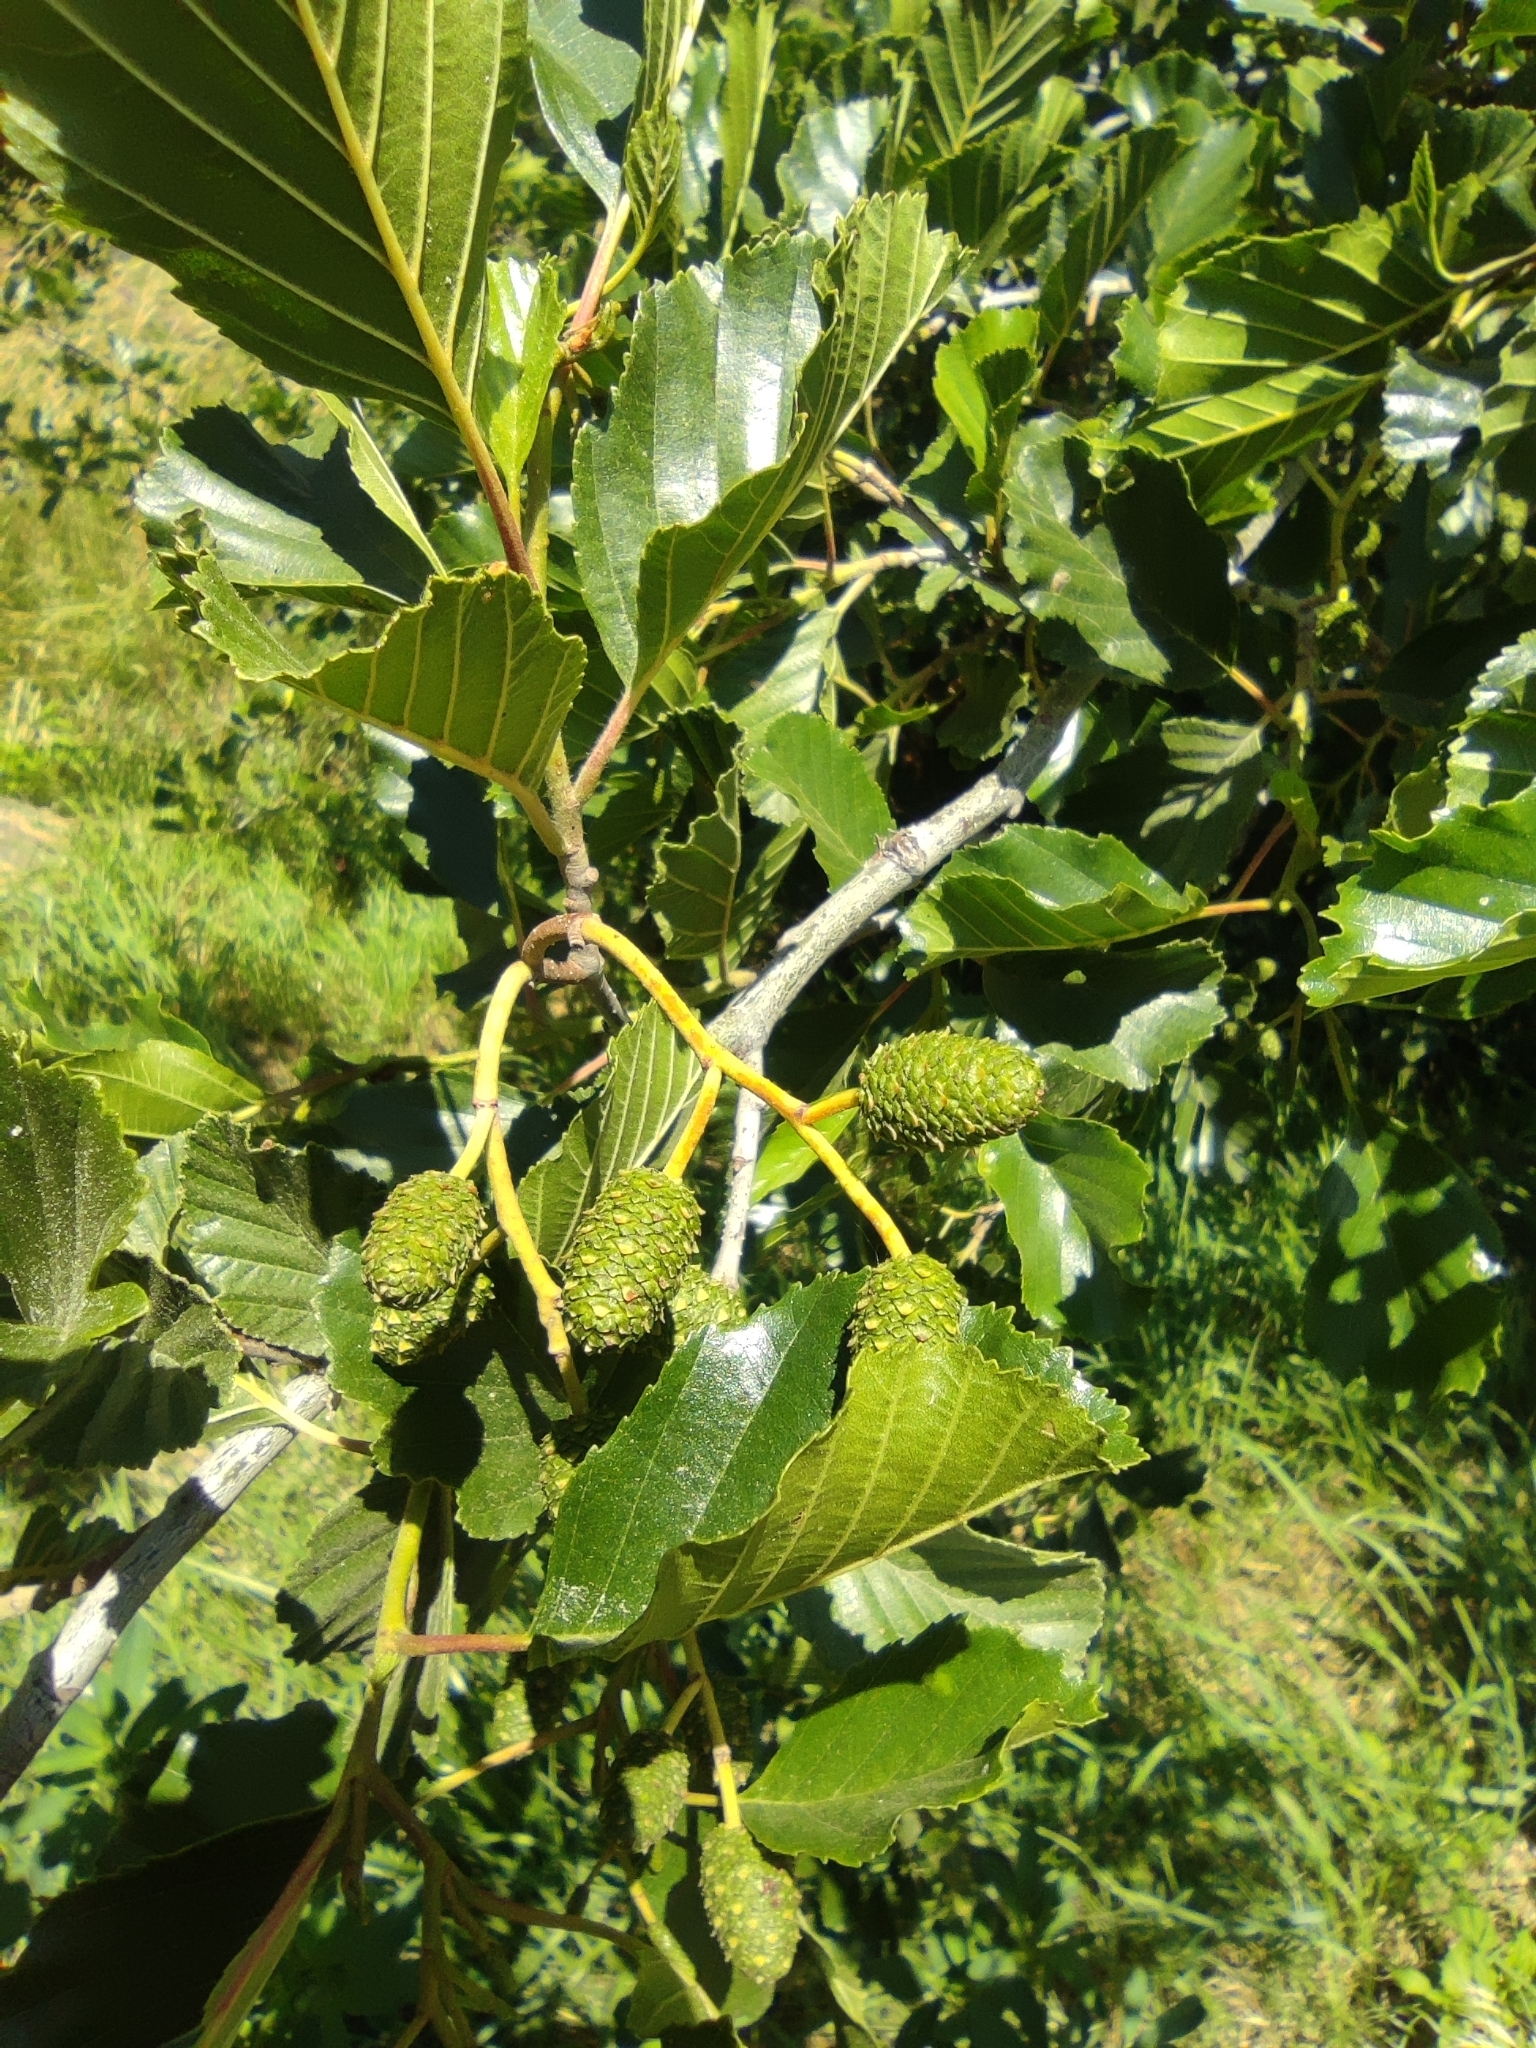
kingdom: Plantae
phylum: Tracheophyta
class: Magnoliopsida
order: Fagales
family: Betulaceae
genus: Alnus
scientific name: Alnus glutinosa
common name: Black alder
